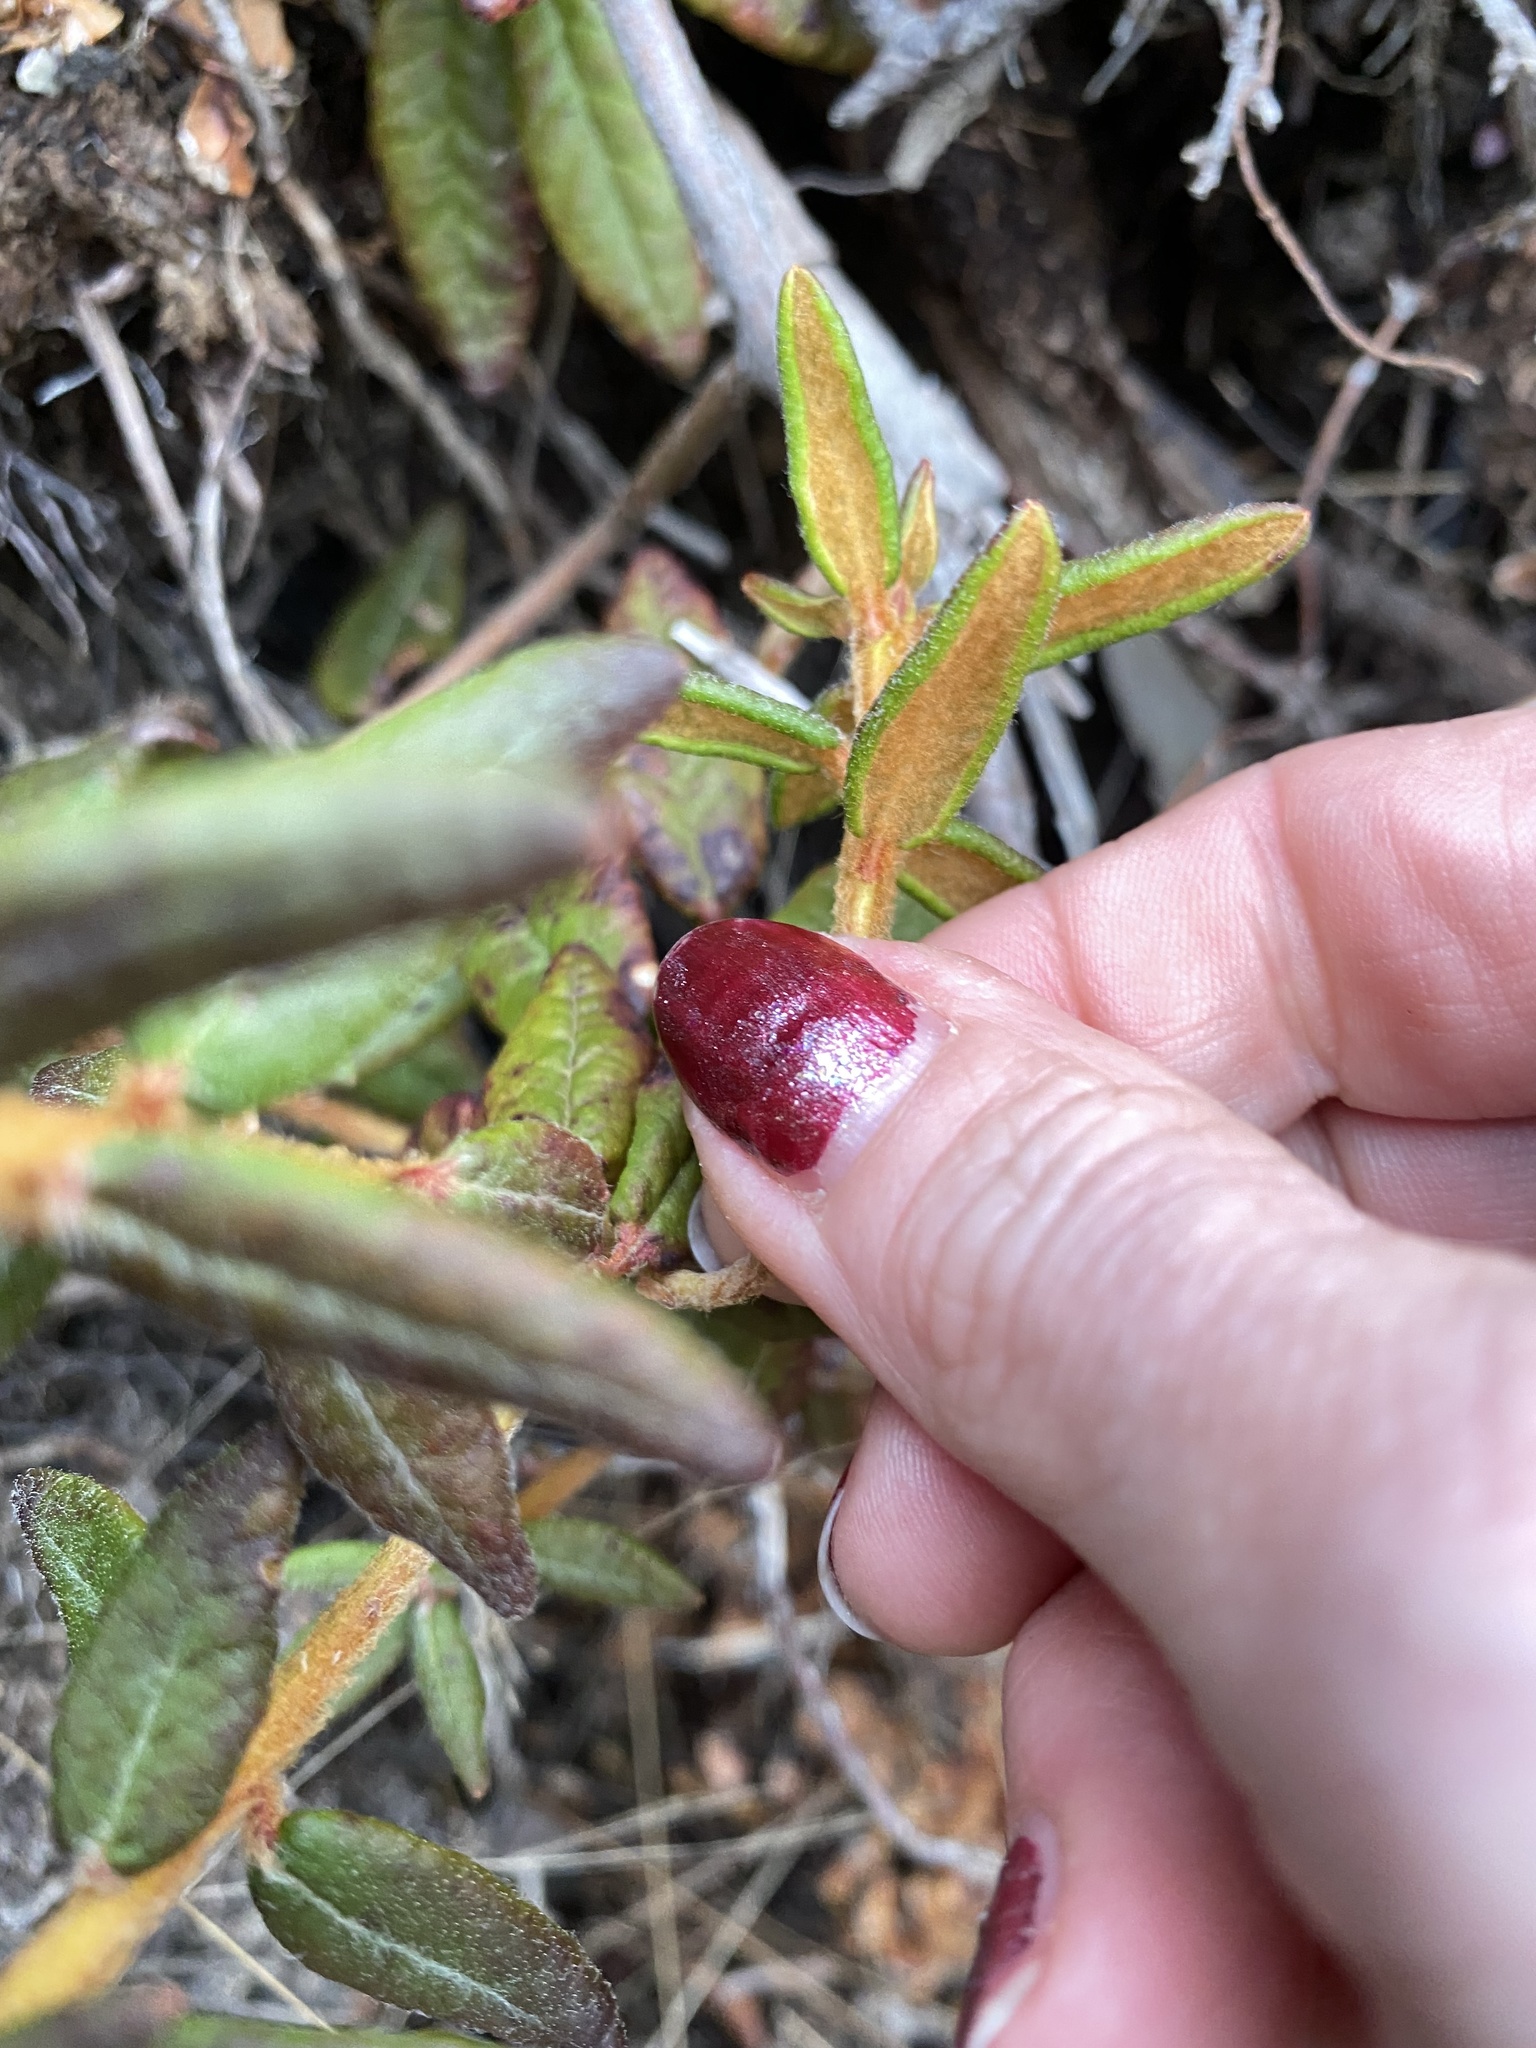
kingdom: Plantae
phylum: Tracheophyta
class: Magnoliopsida
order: Ericales
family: Ericaceae
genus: Rhododendron
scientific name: Rhododendron groenlandicum
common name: Bog labrador tea
